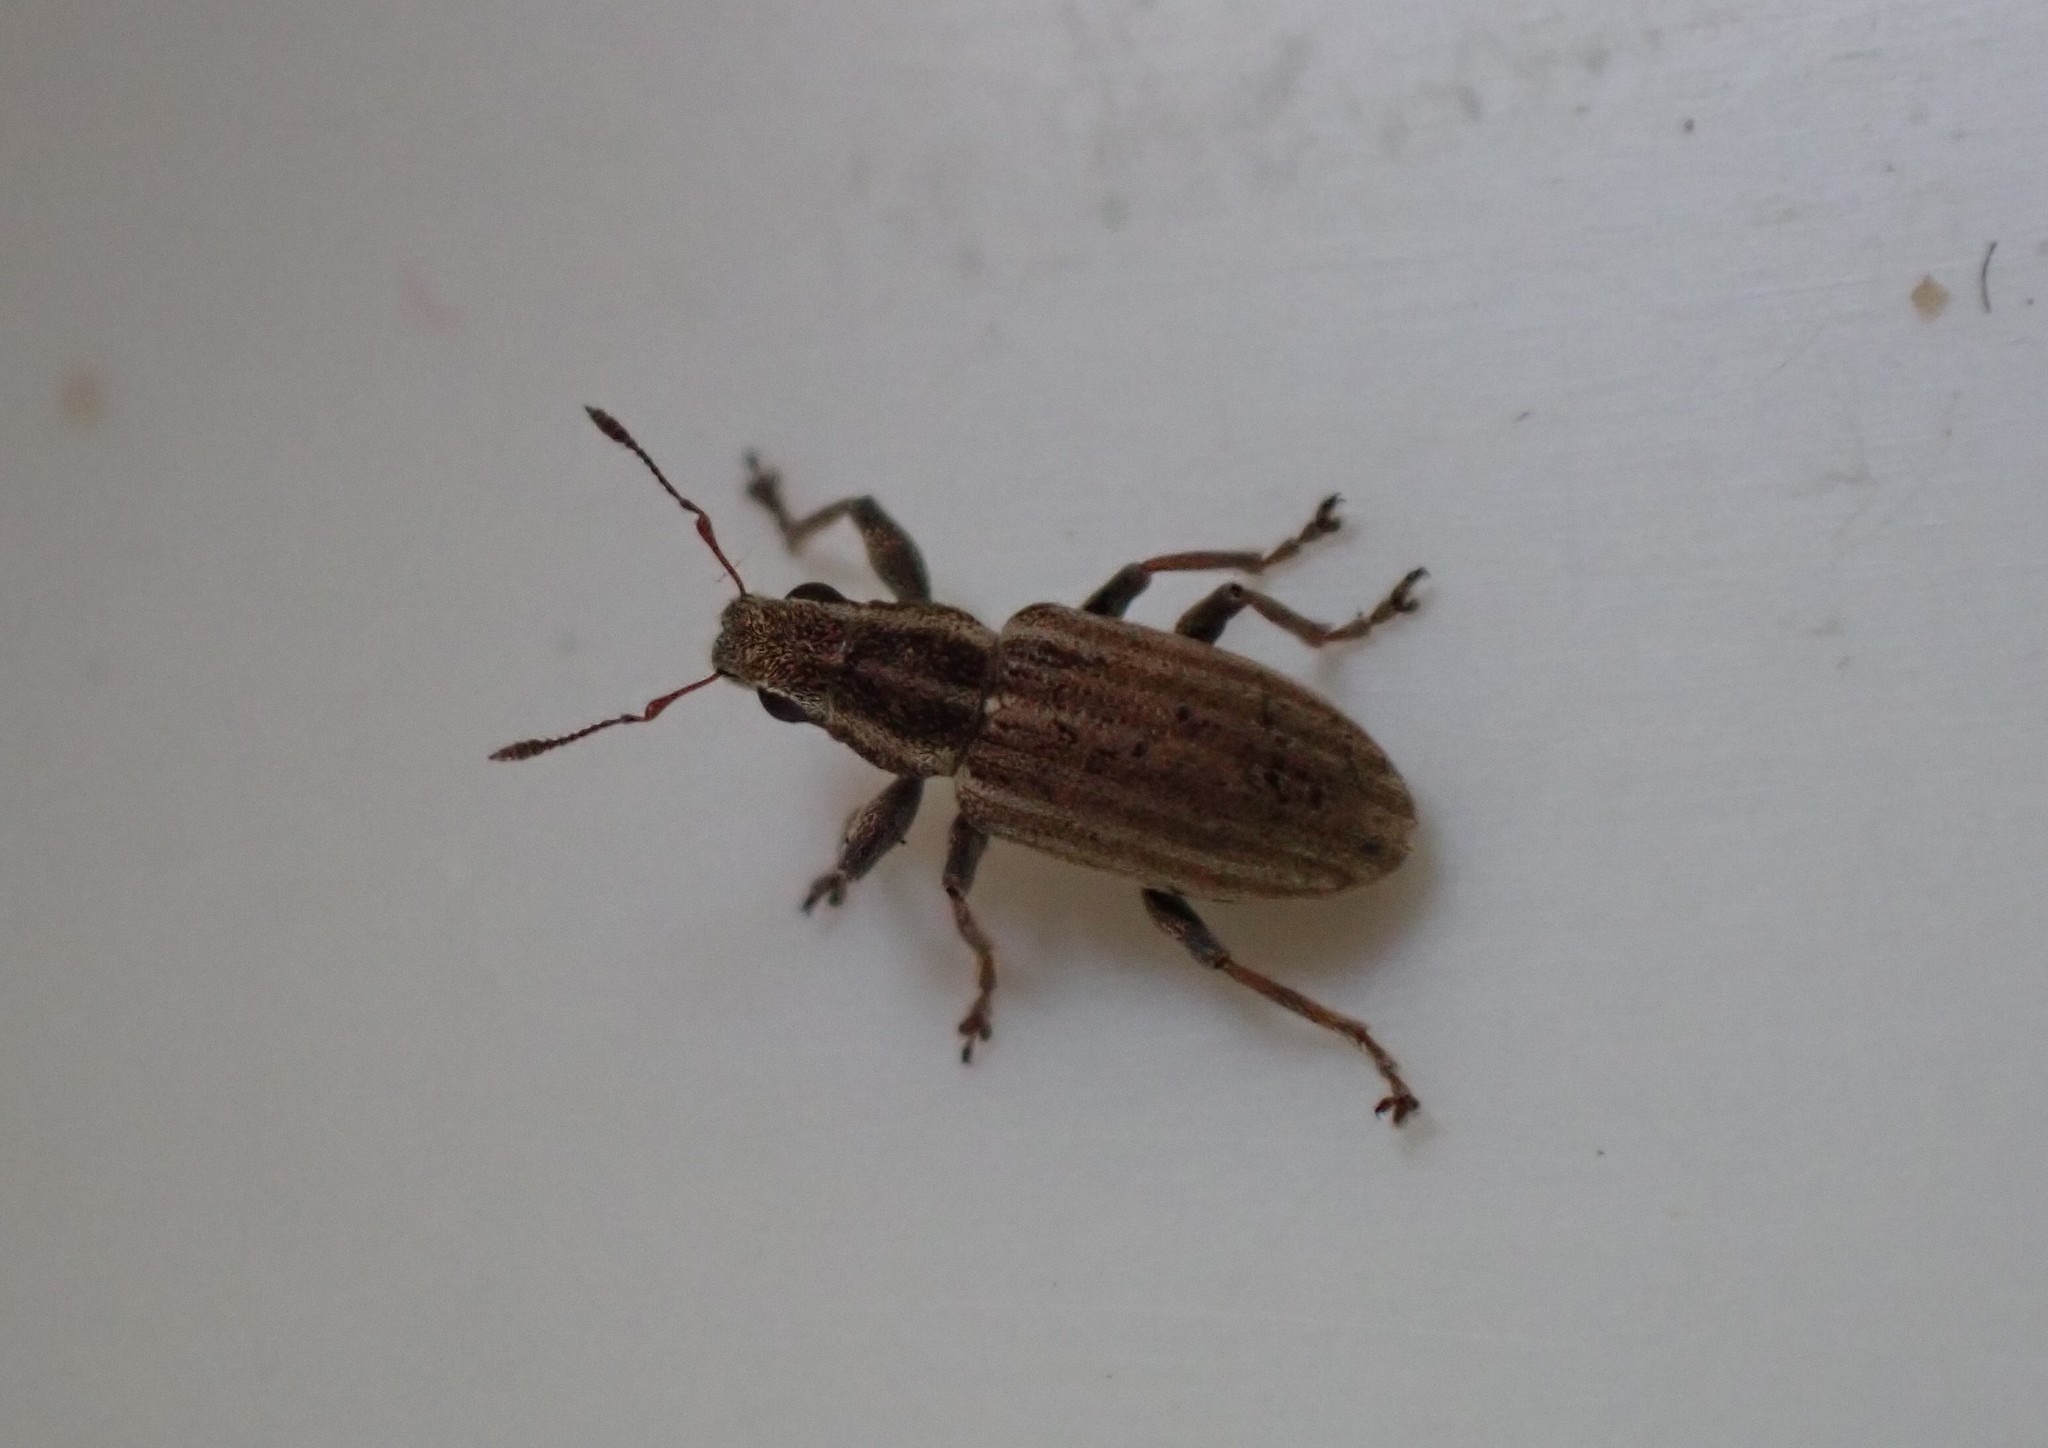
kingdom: Animalia
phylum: Arthropoda
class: Insecta
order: Coleoptera
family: Curculionidae
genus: Sitona
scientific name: Sitona lineatus
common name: Weevil
